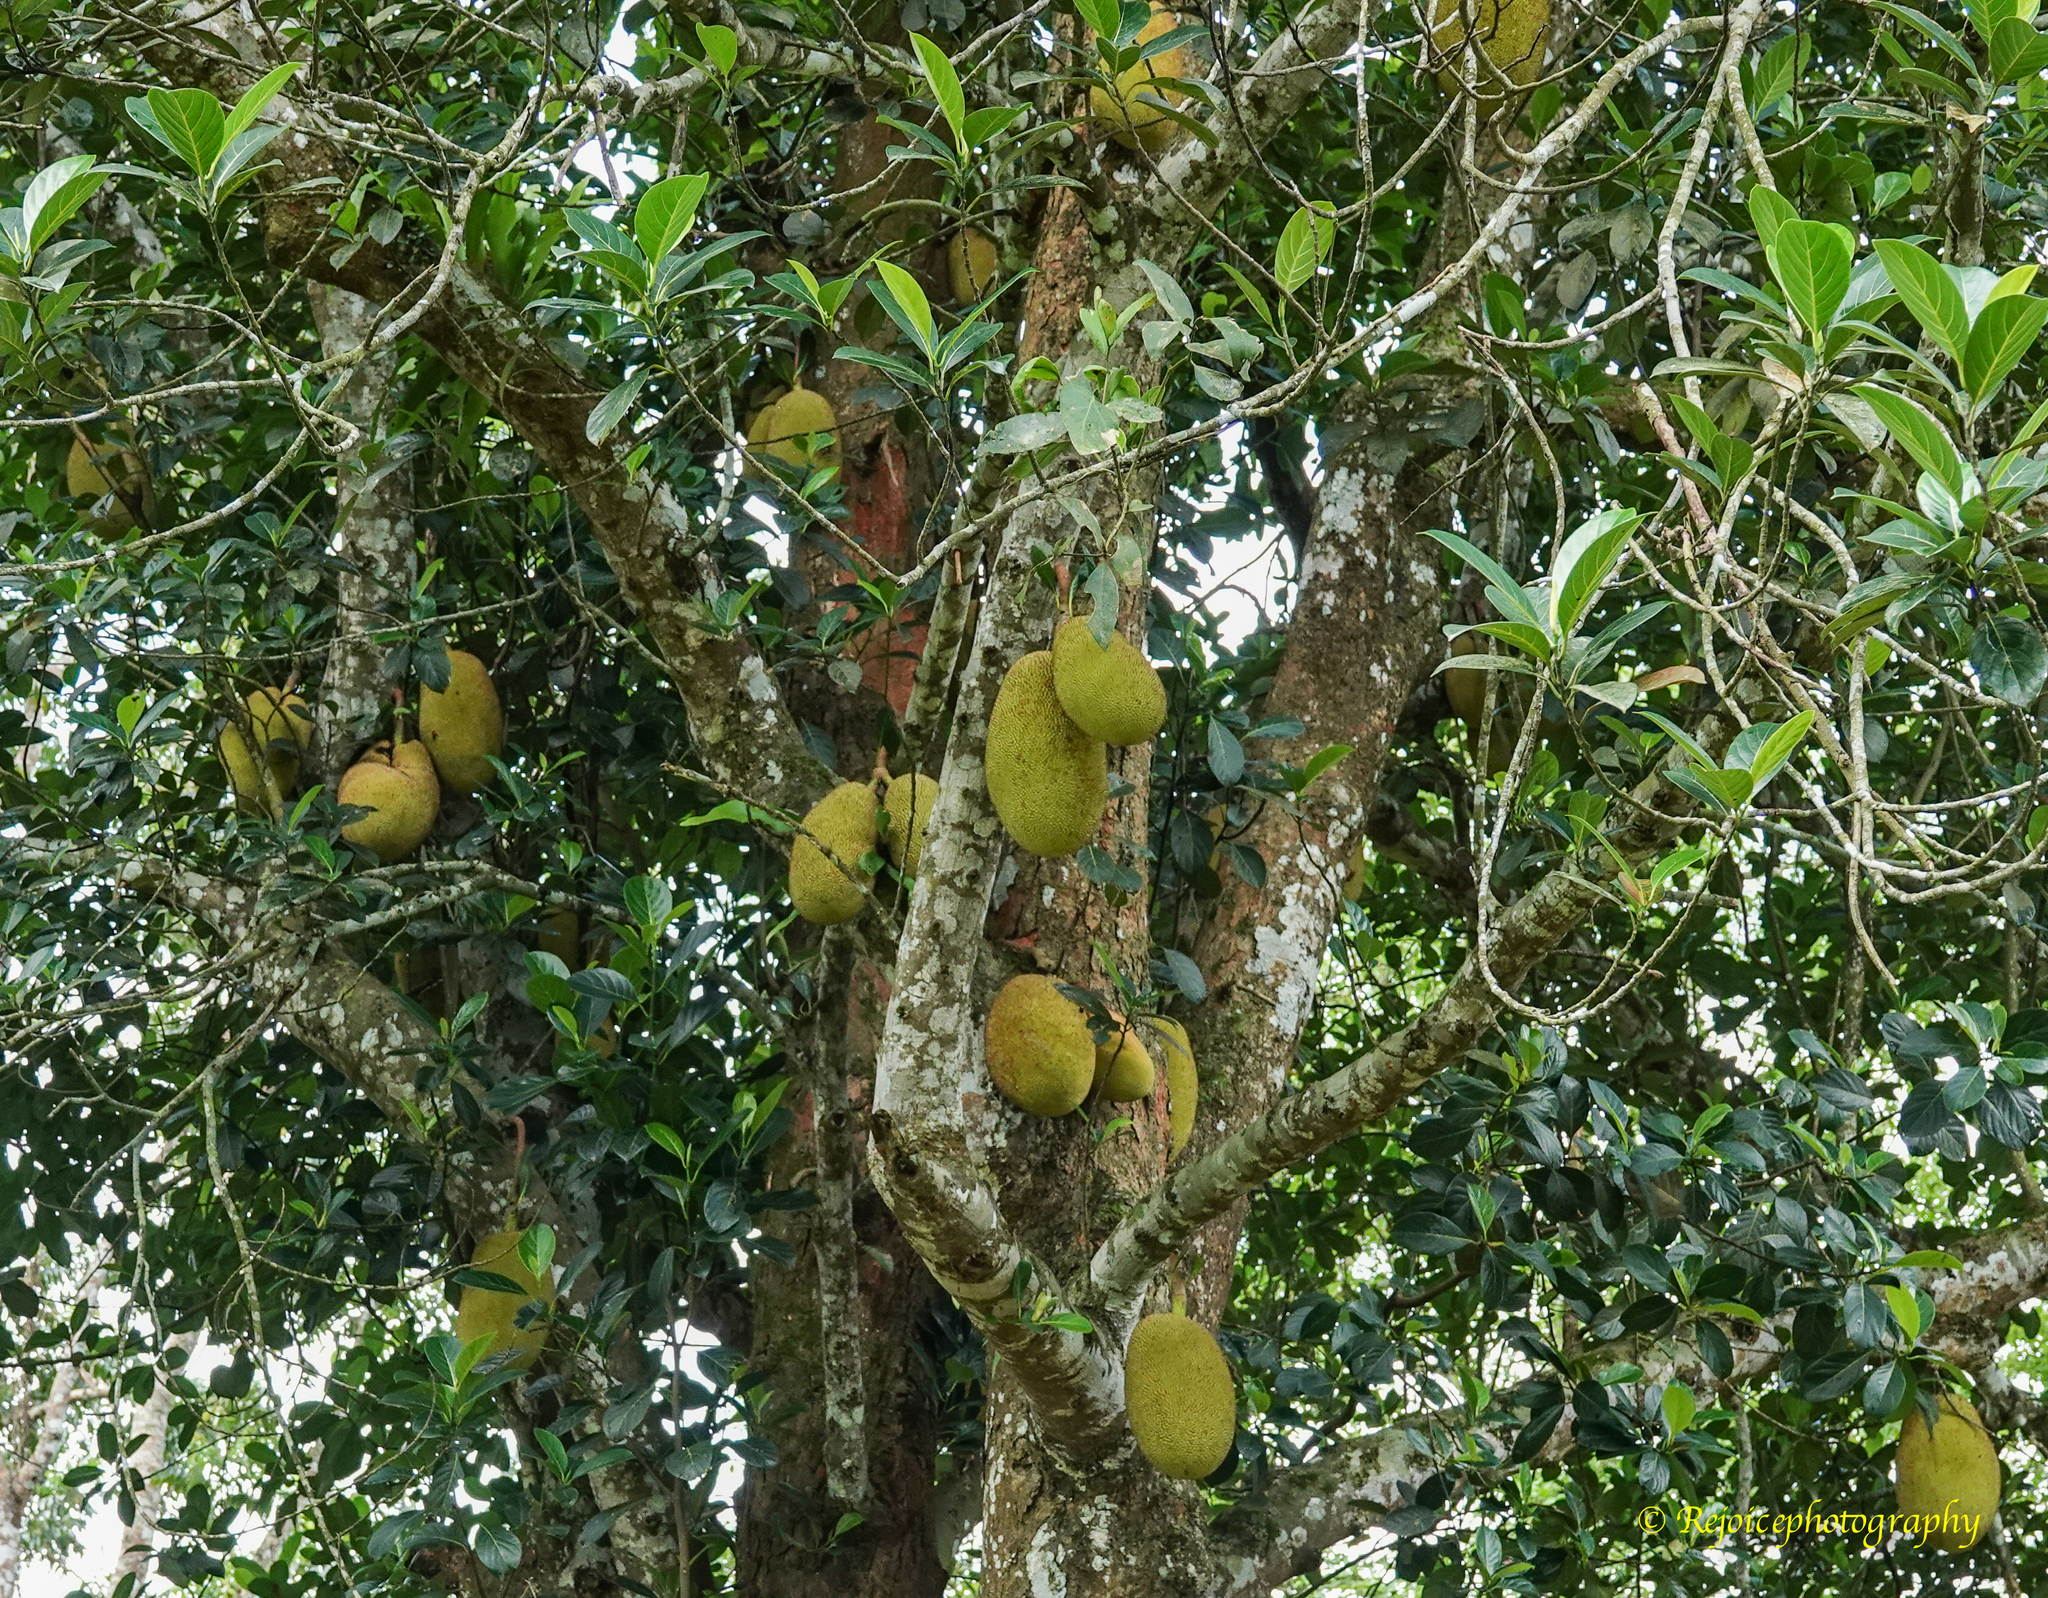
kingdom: Plantae
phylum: Tracheophyta
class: Magnoliopsida
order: Rosales
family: Moraceae
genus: Artocarpus
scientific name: Artocarpus heterophyllus
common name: Jackfruit
